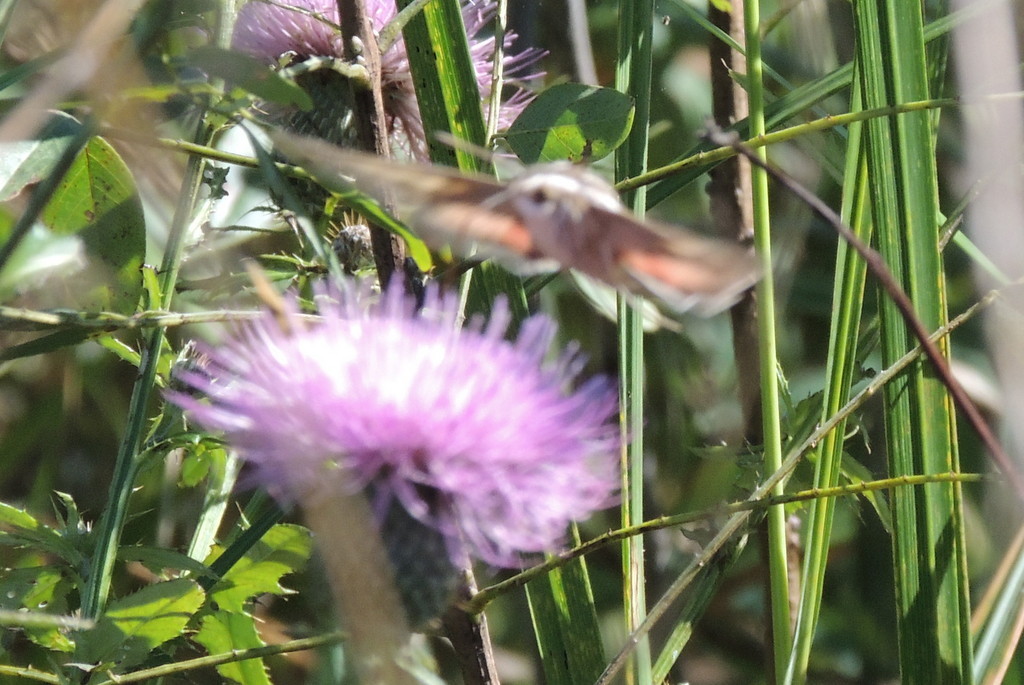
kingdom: Animalia
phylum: Arthropoda
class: Insecta
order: Lepidoptera
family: Sphingidae
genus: Hyles
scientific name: Hyles lineata
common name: White-lined sphinx
